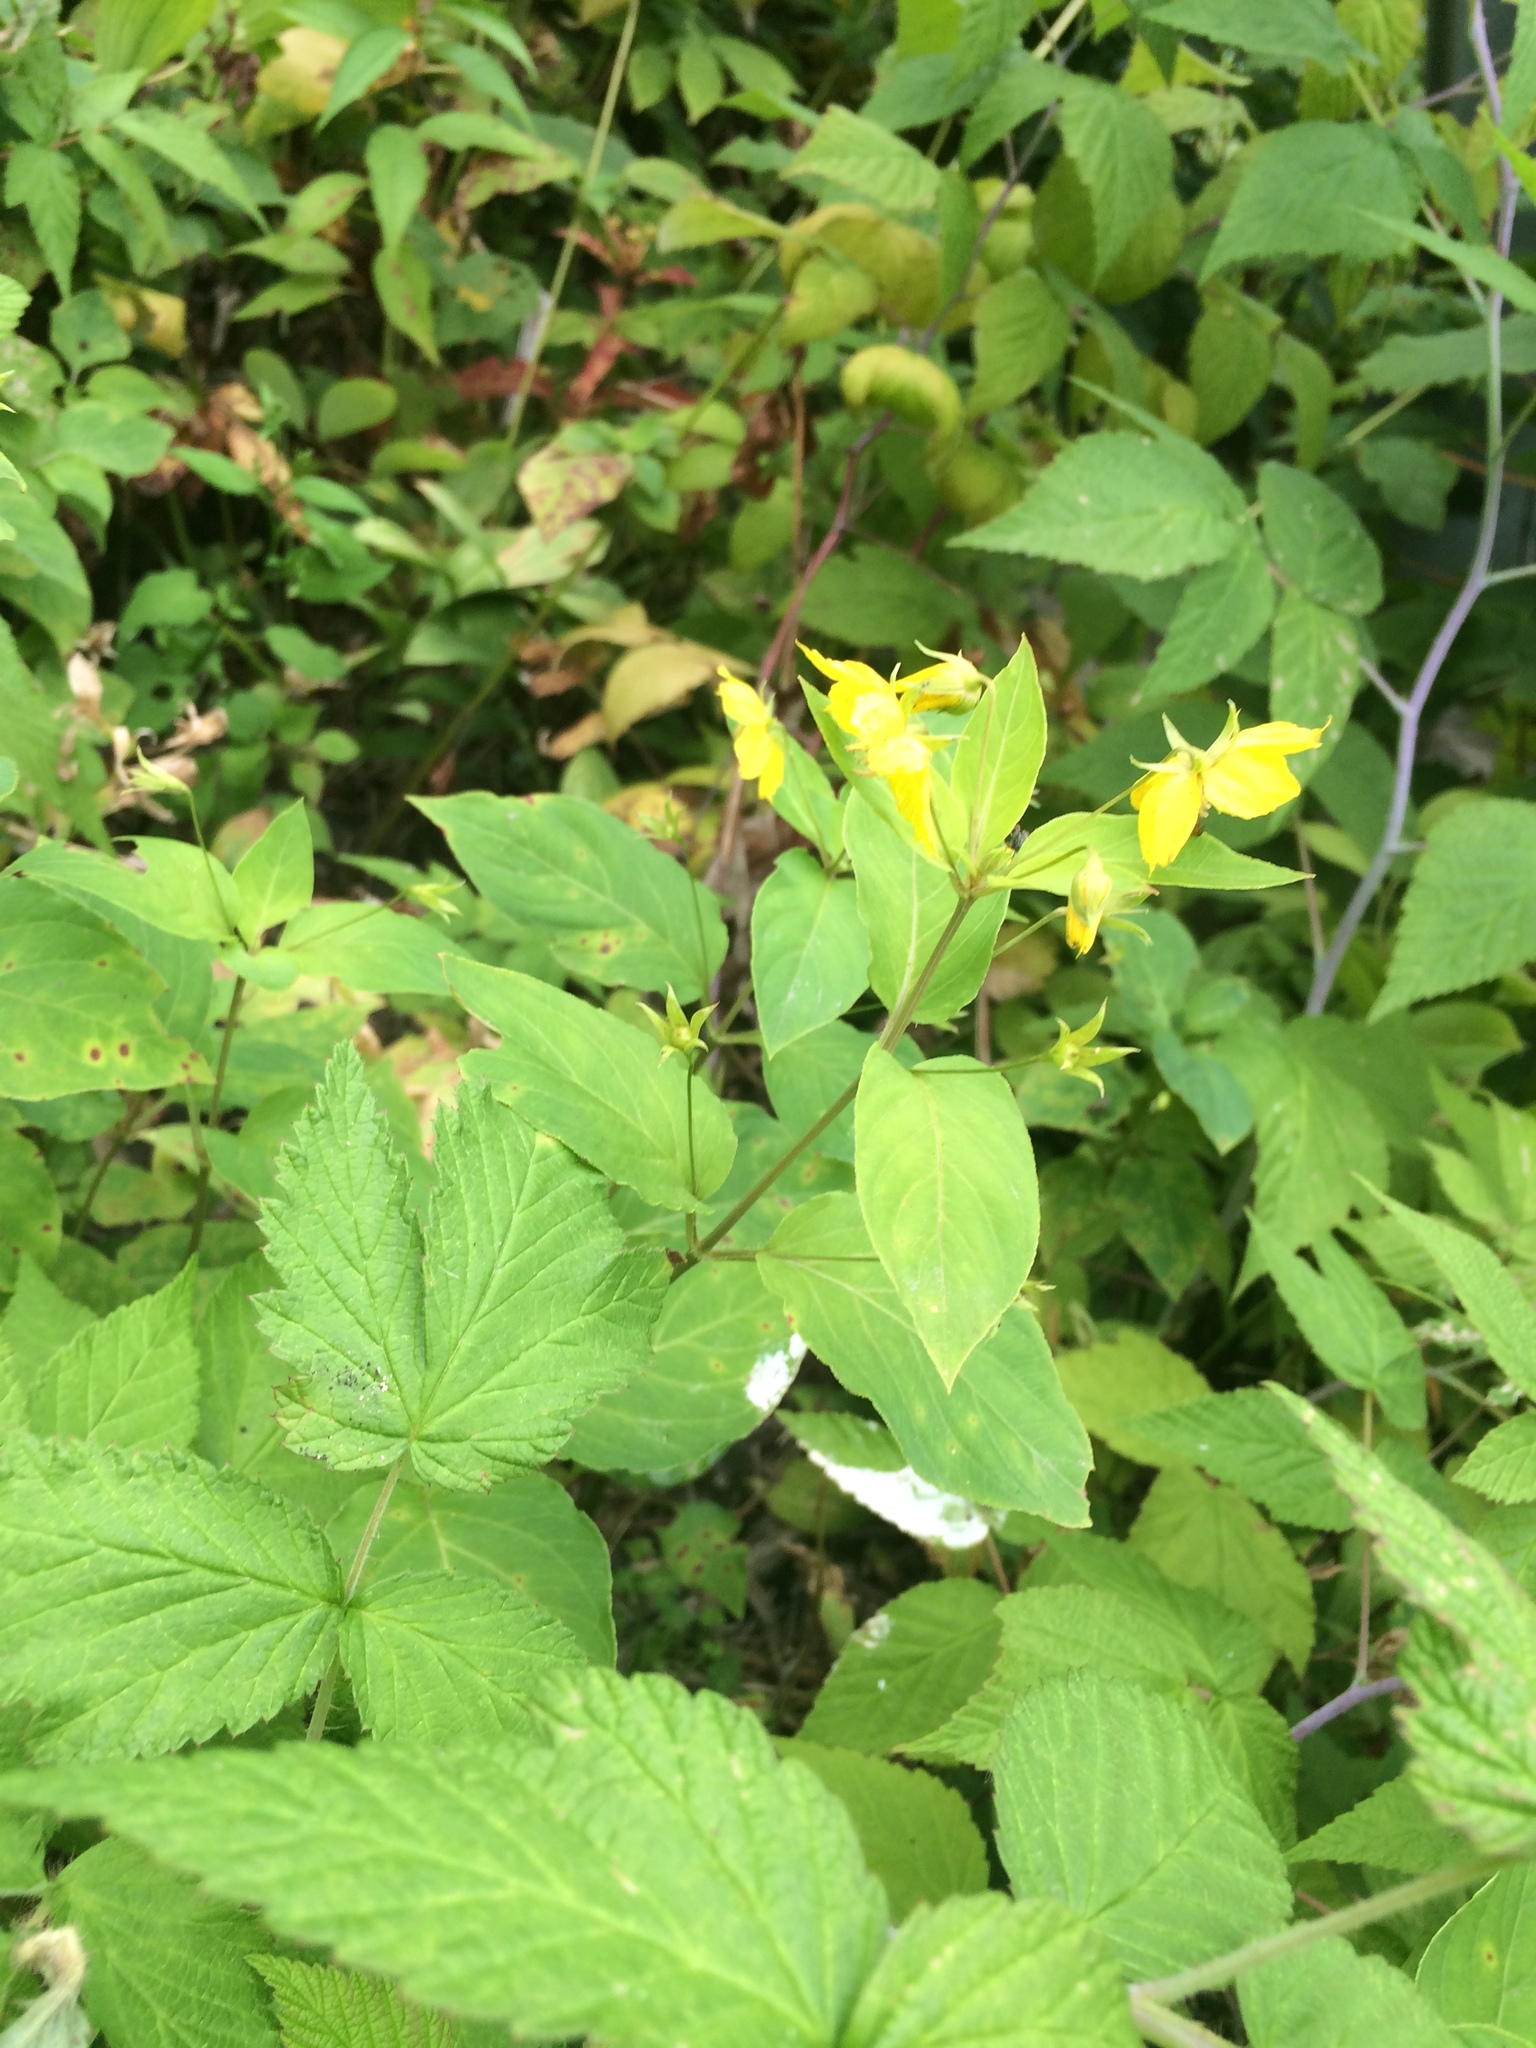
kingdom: Plantae
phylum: Tracheophyta
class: Magnoliopsida
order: Ericales
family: Primulaceae
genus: Lysimachia
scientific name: Lysimachia ciliata
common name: Fringed loosestrife
